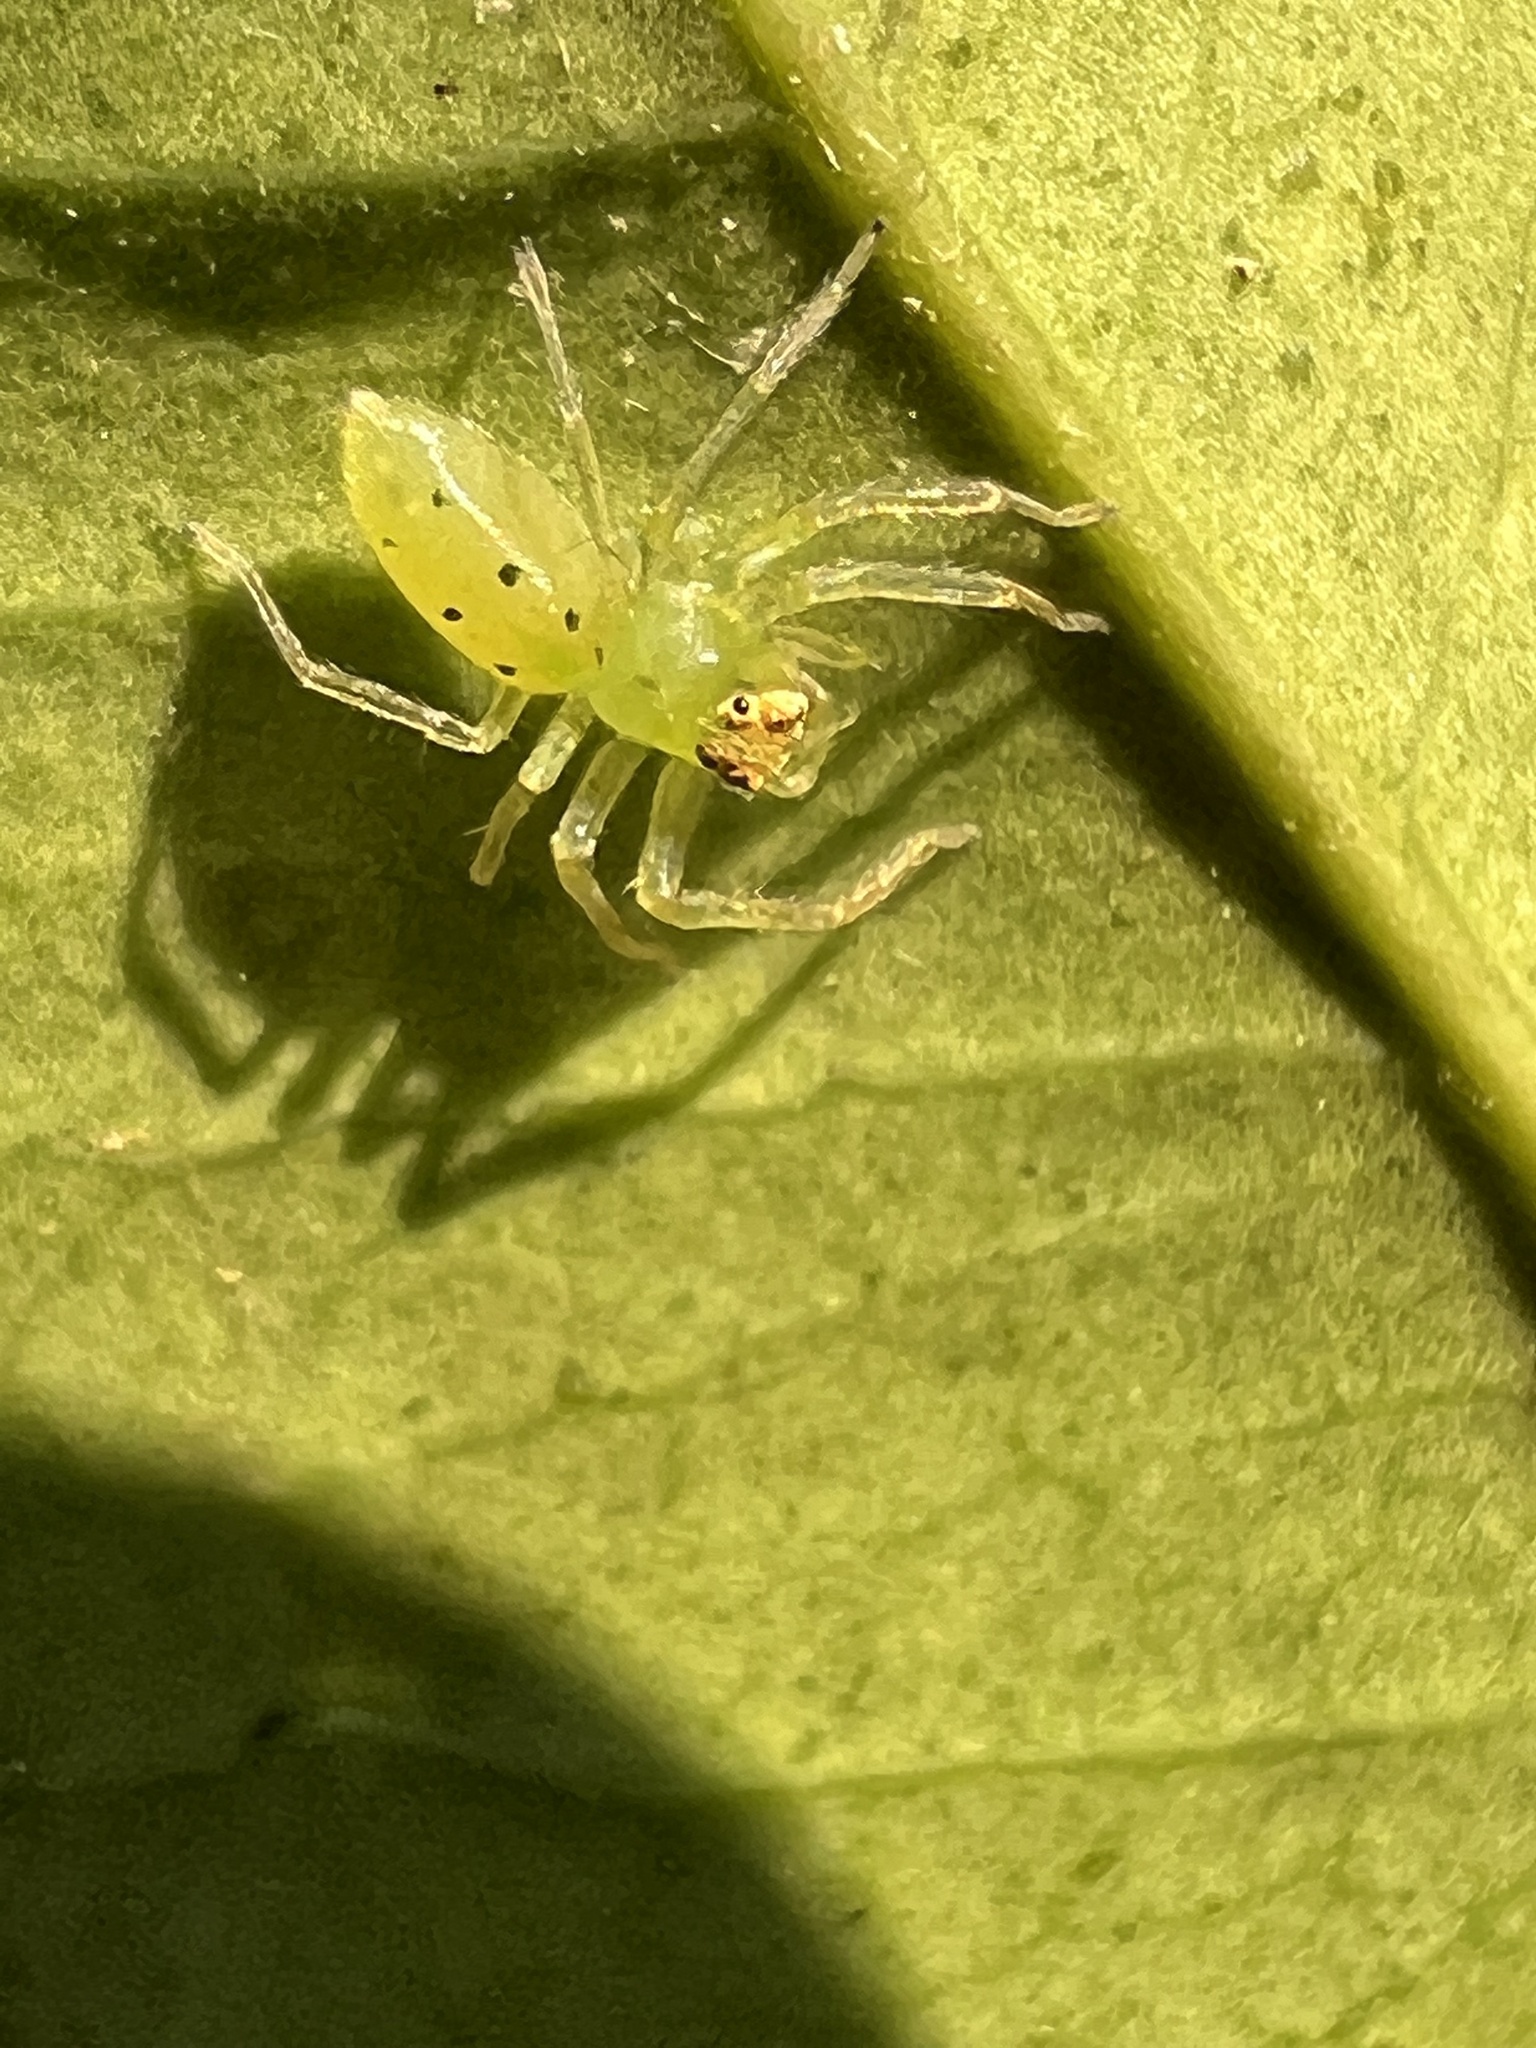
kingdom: Animalia
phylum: Arthropoda
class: Arachnida
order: Araneae
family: Salticidae
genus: Lyssomanes
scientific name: Lyssomanes viridis
